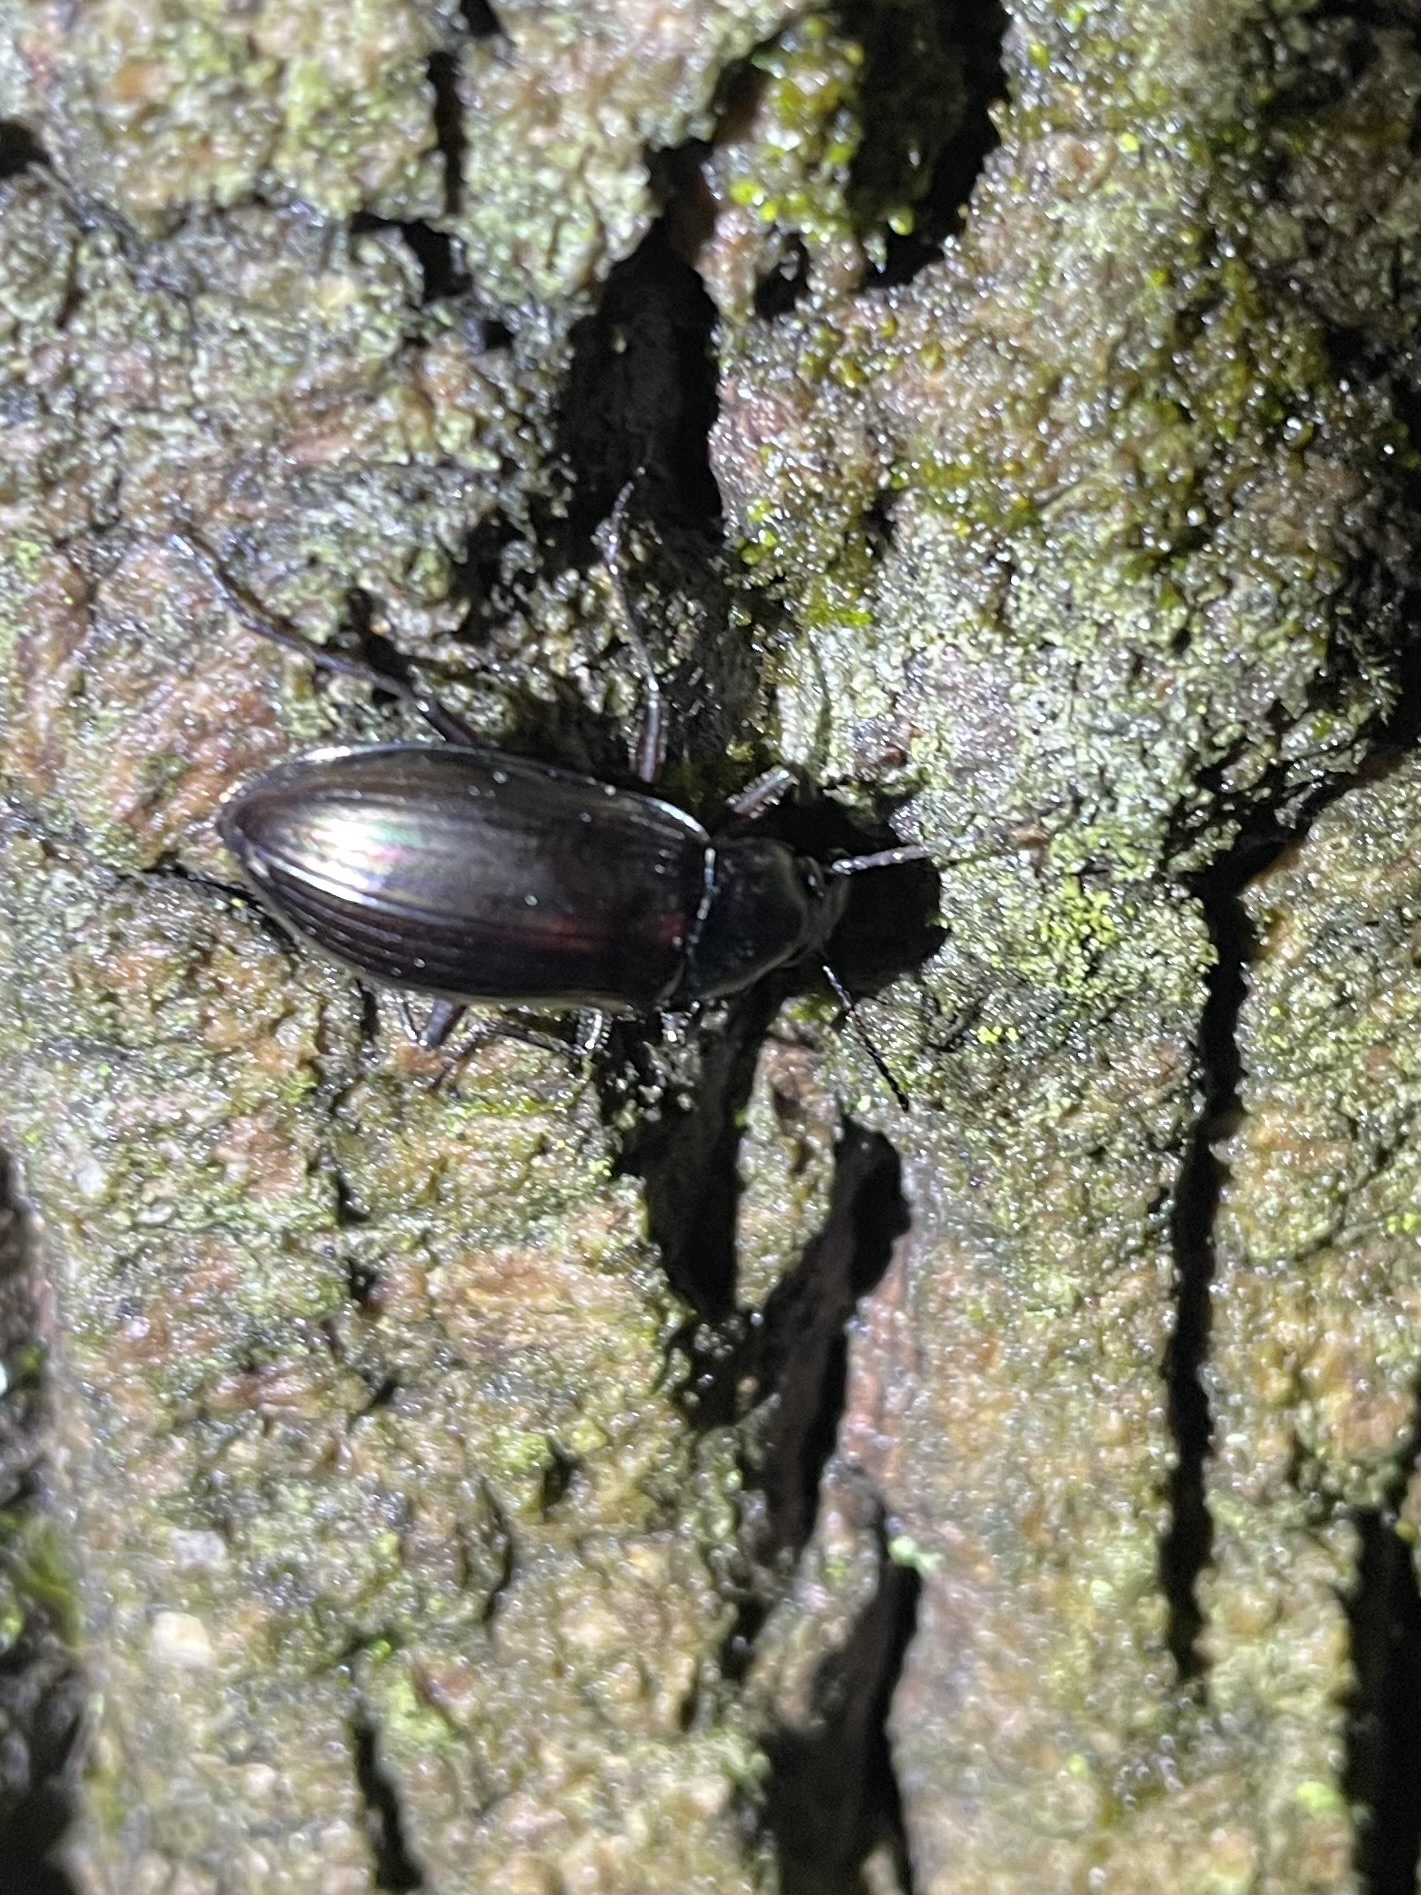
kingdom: Animalia
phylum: Arthropoda
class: Insecta
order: Coleoptera
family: Tenebrionidae
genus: Tarpela
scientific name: Tarpela micans
